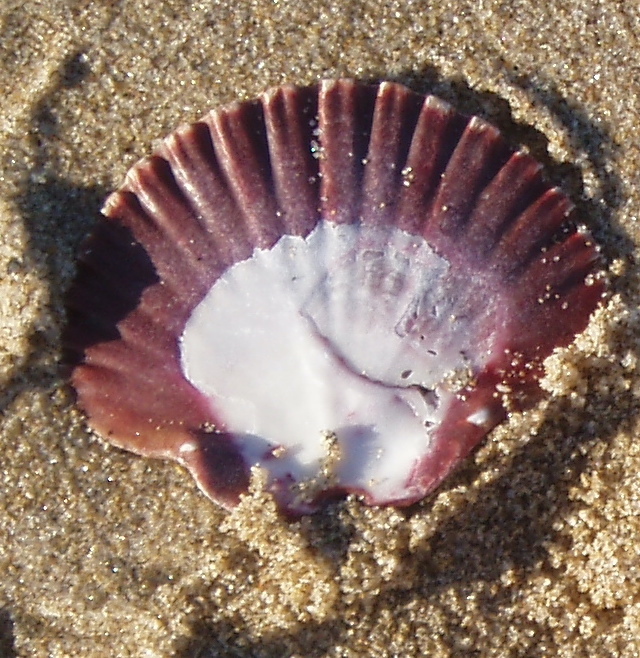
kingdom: Animalia
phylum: Mollusca
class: Bivalvia
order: Pectinida
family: Pectinidae
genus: Leopecten
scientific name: Leopecten diegensis
